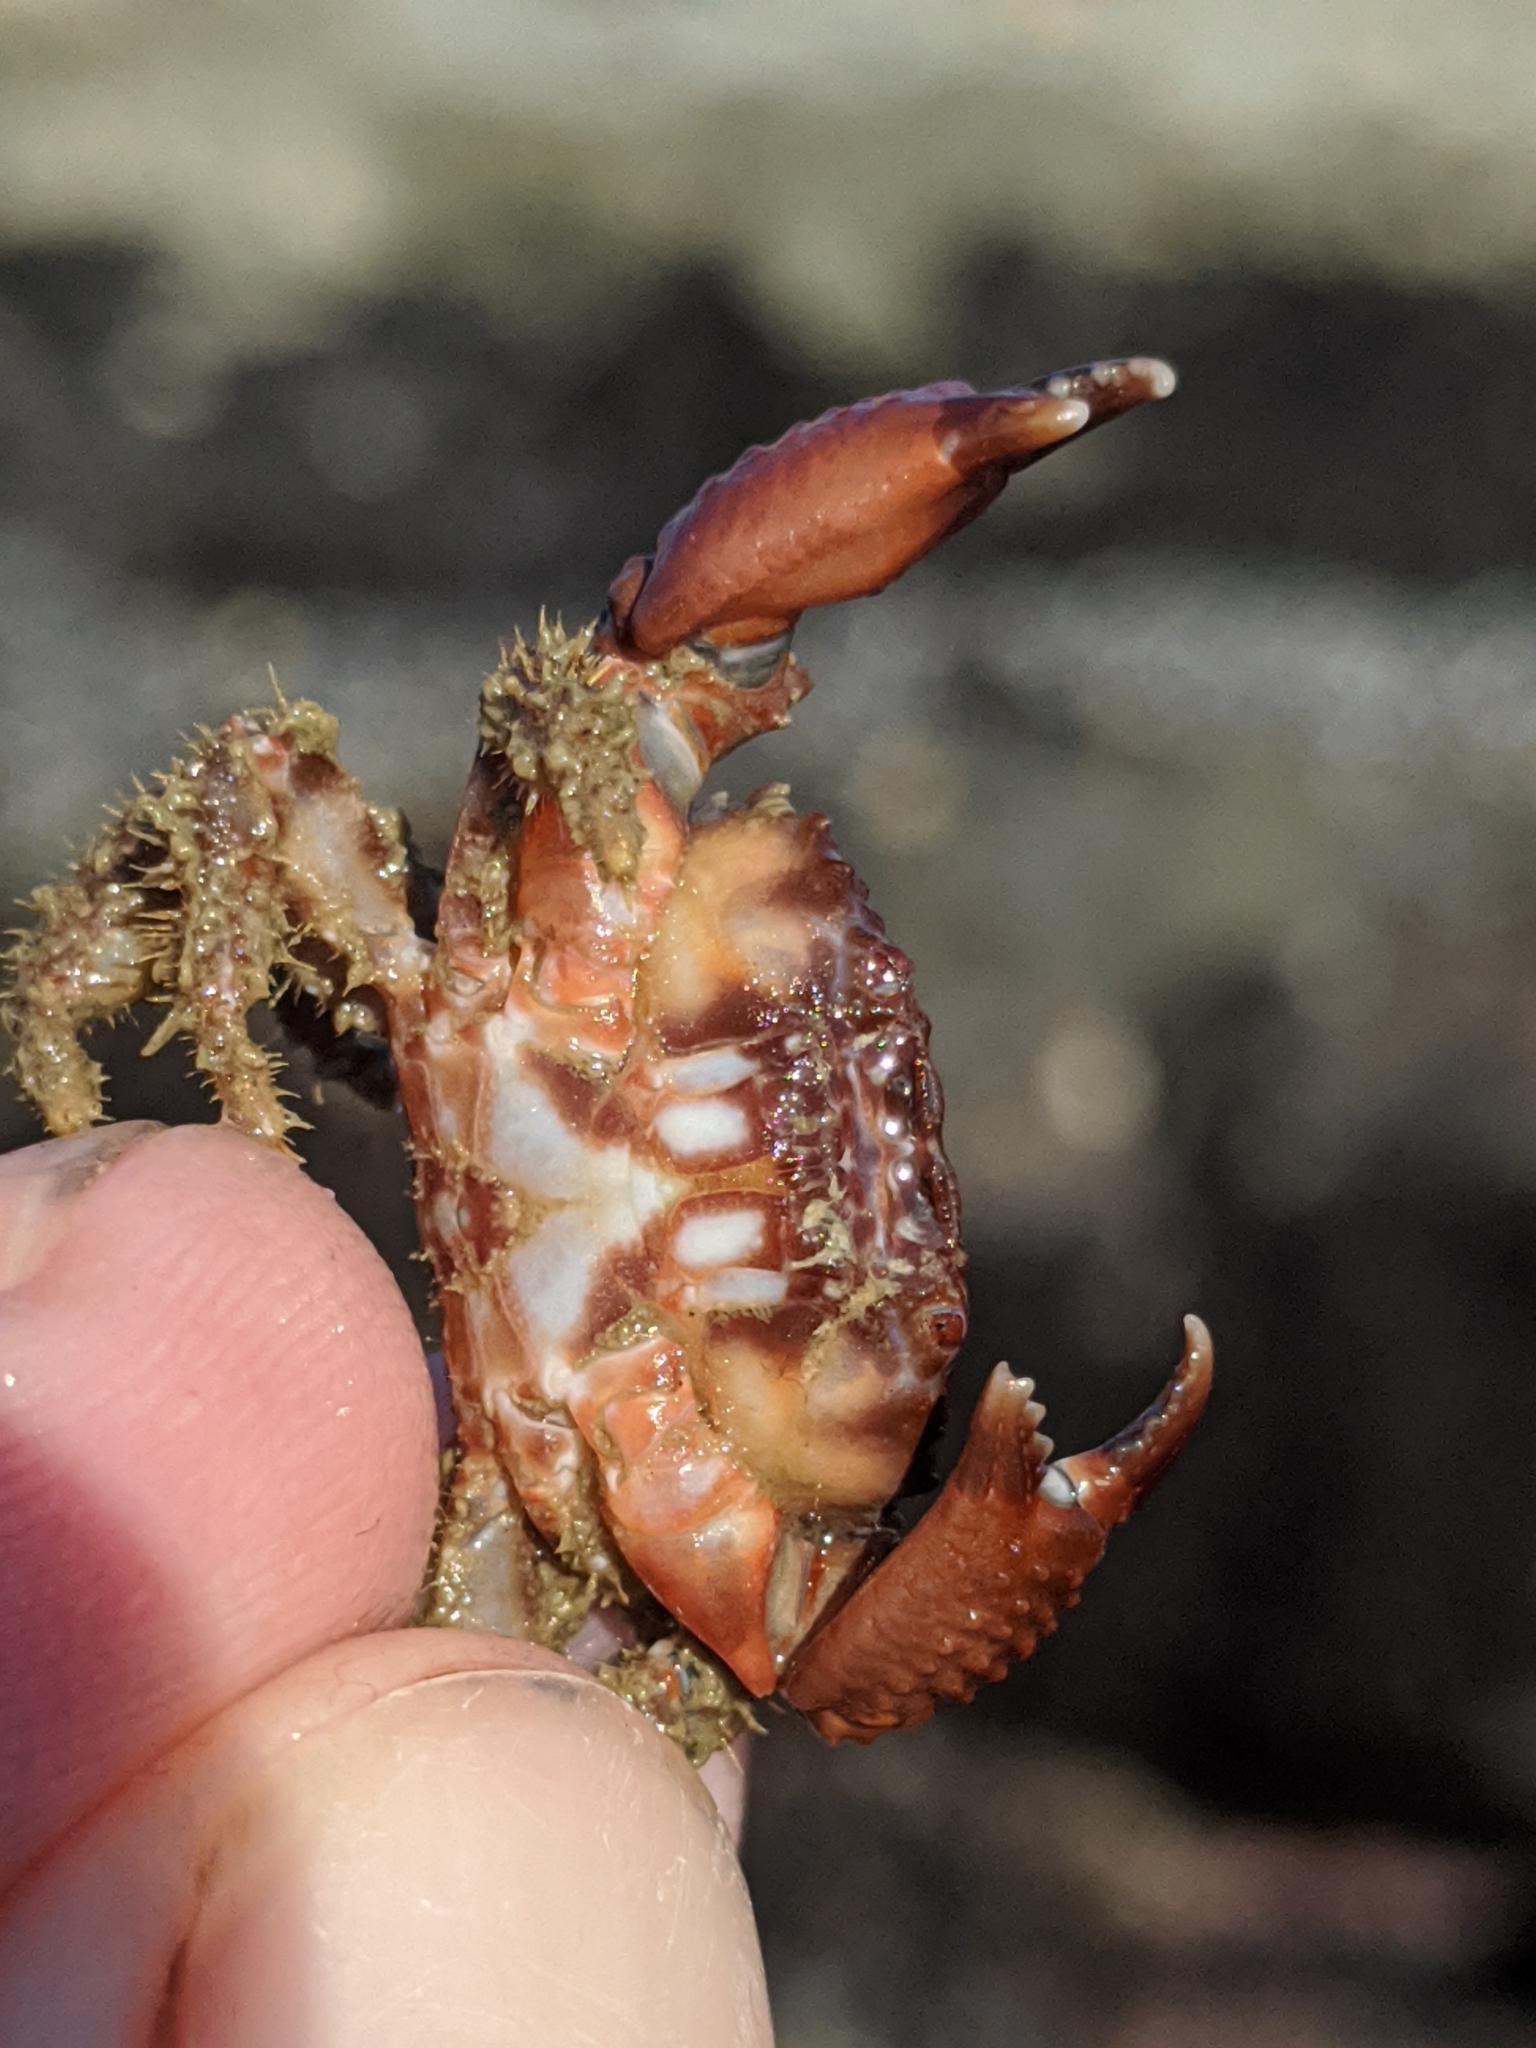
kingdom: Animalia
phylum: Arthropoda
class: Malacostraca
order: Decapoda
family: Xanthidae
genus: Paraxanthias
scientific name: Paraxanthias taylori
